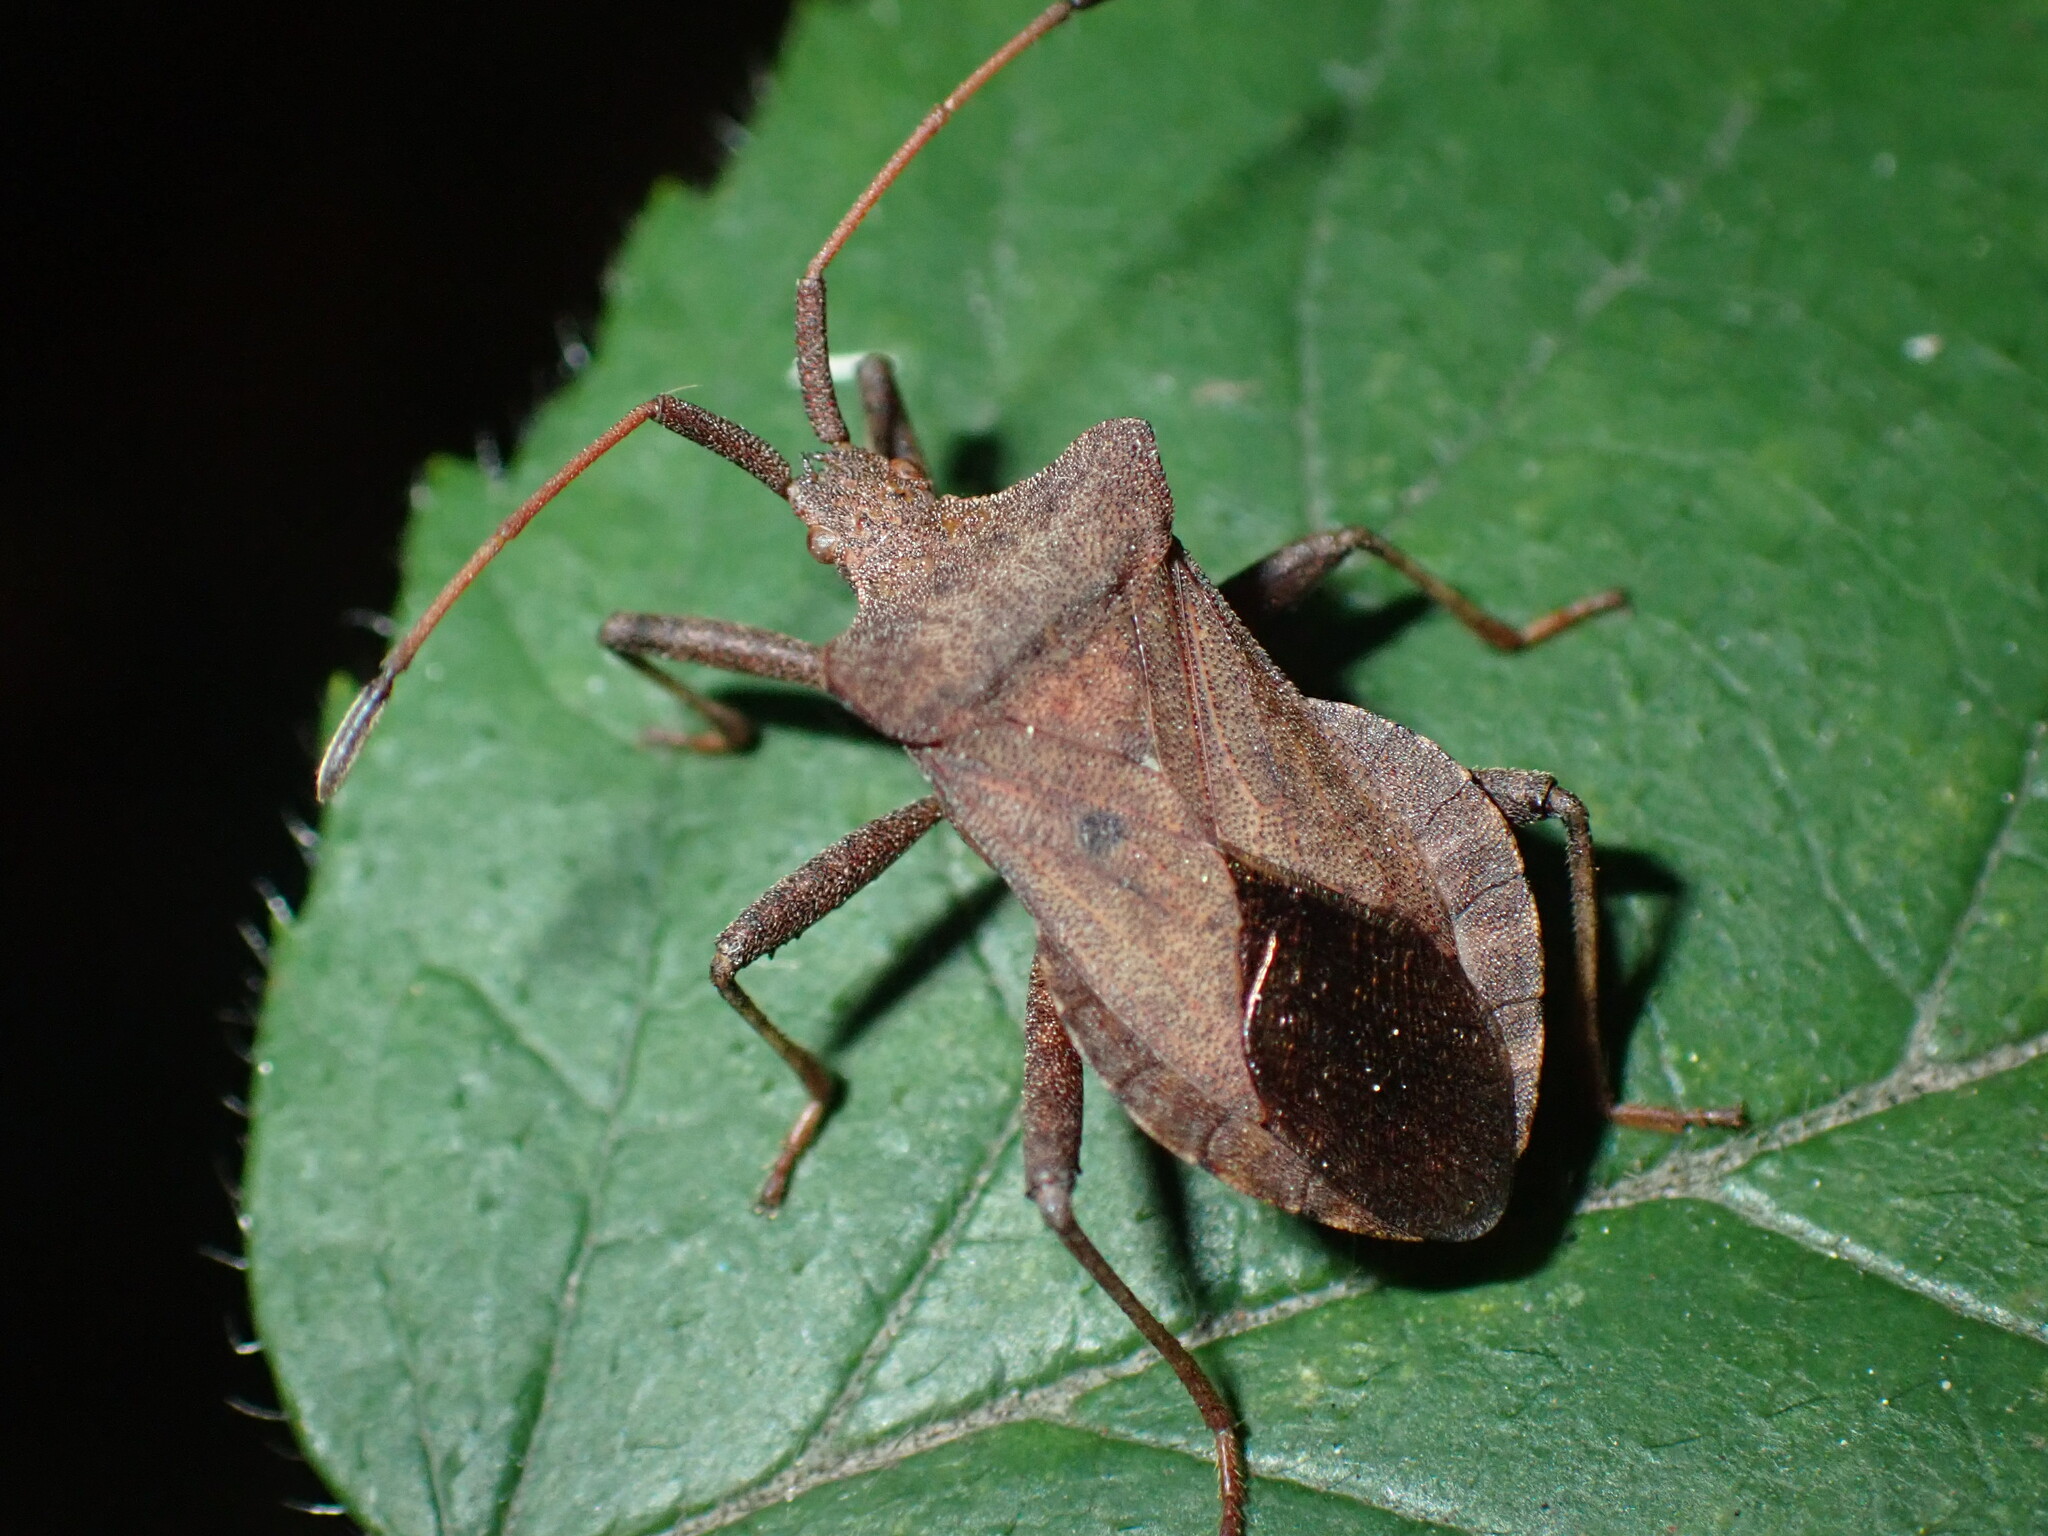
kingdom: Animalia
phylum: Arthropoda
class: Insecta
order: Hemiptera
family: Coreidae
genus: Coreus
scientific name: Coreus marginatus
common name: Dock bug
